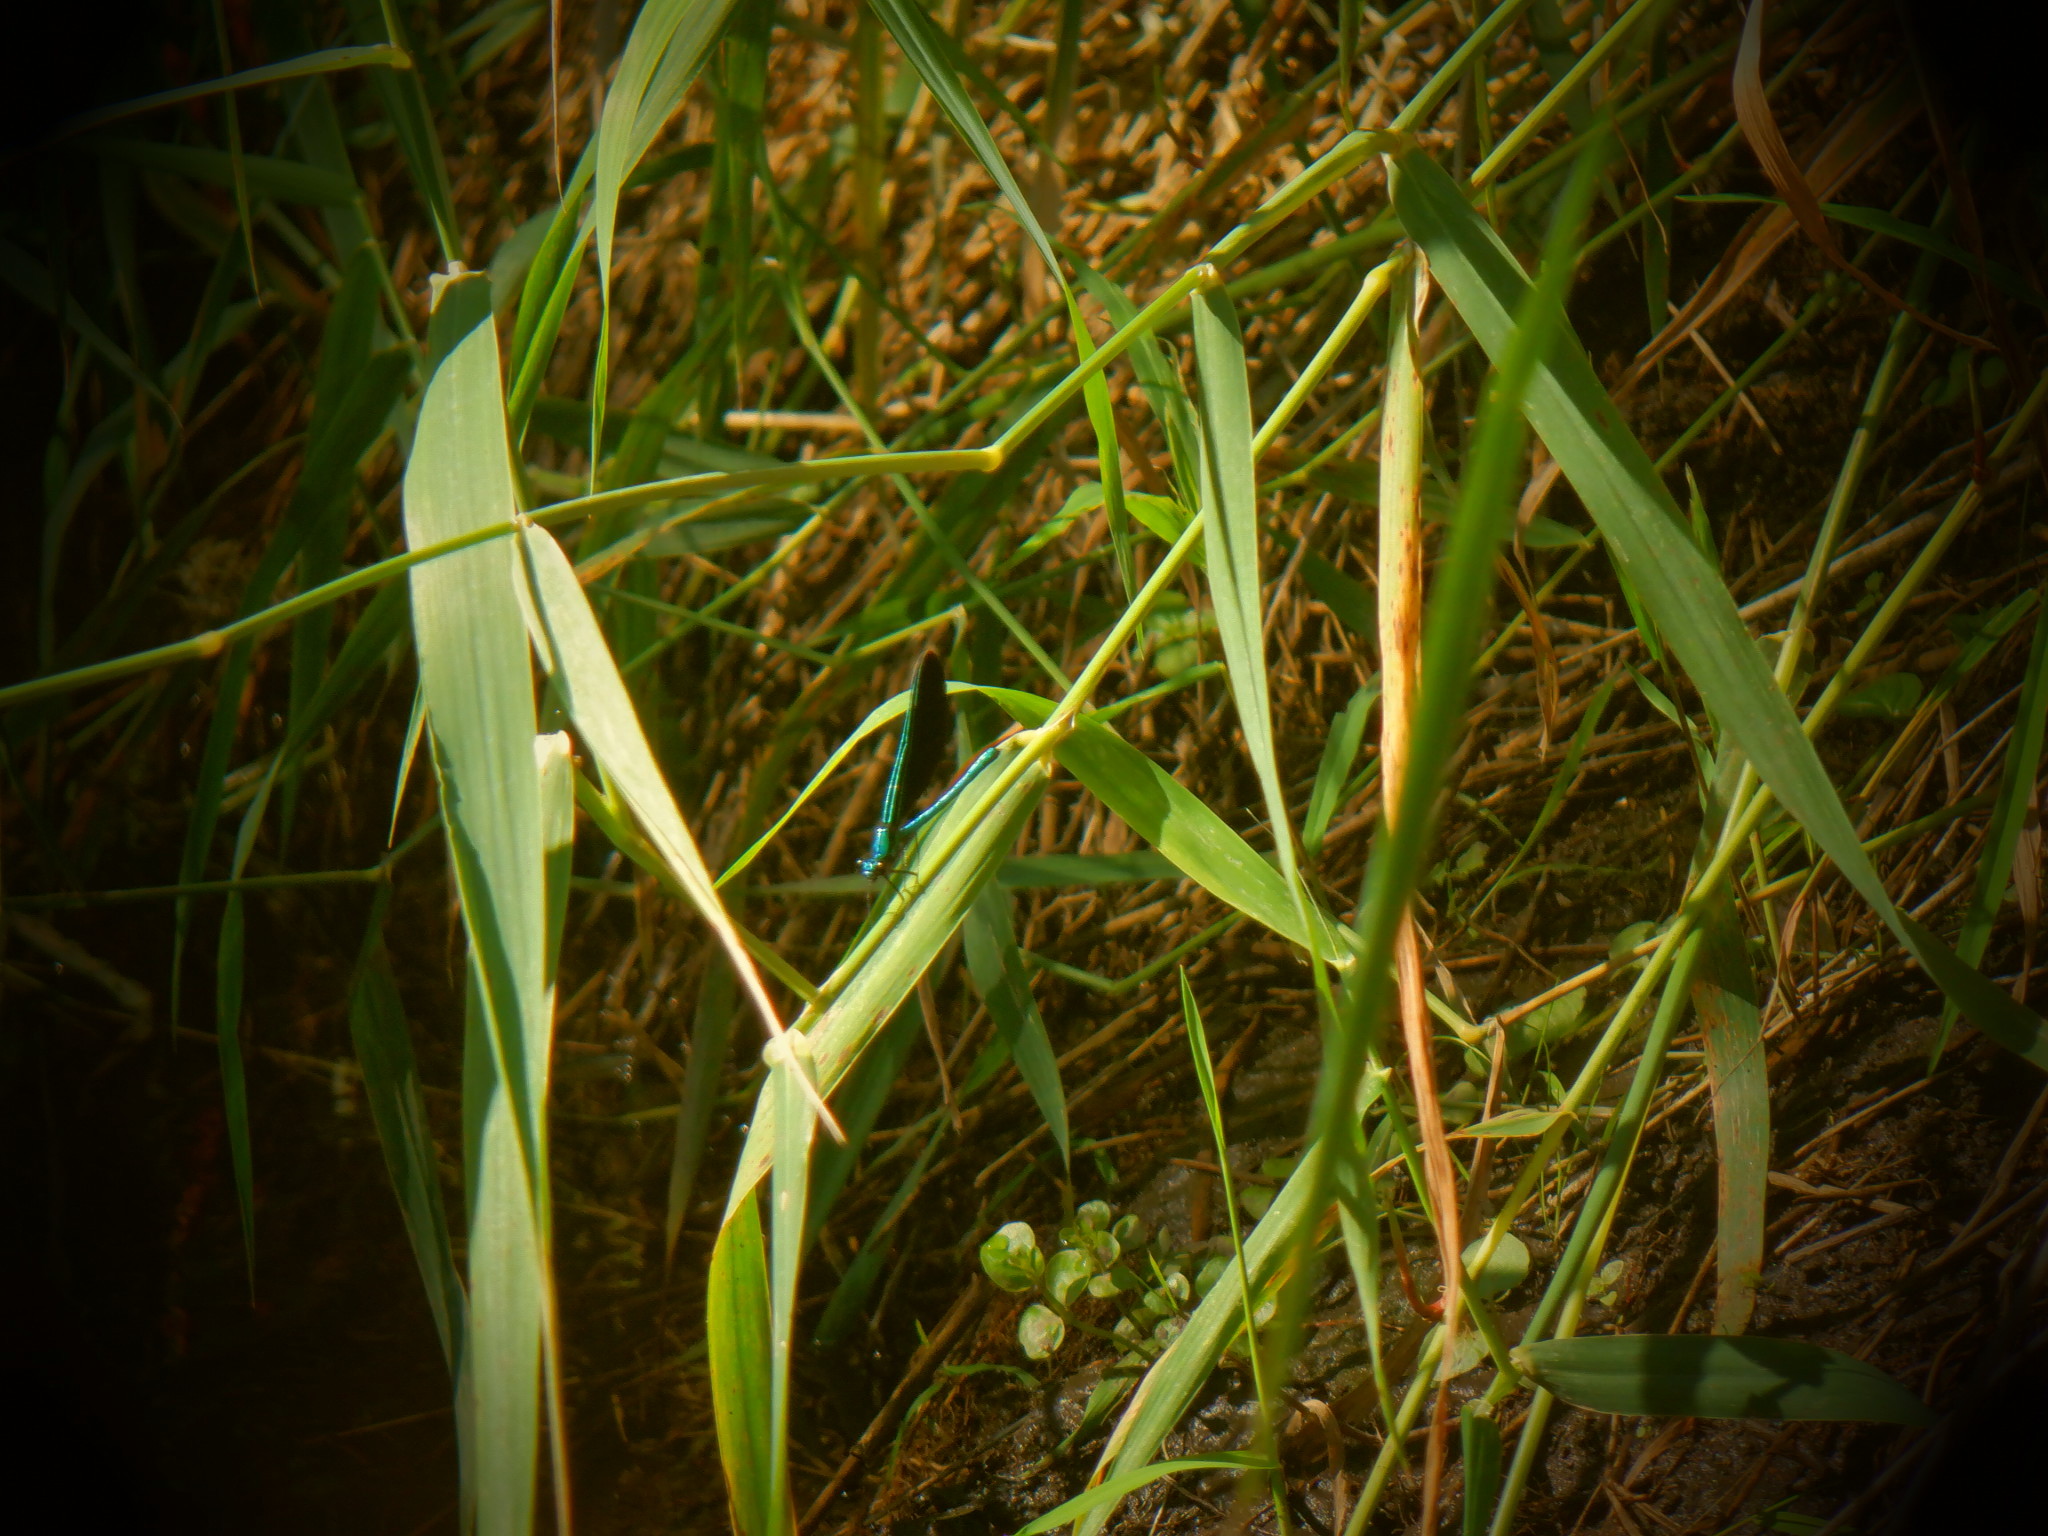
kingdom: Animalia
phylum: Arthropoda
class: Insecta
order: Odonata
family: Calopterygidae
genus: Calopteryx
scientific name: Calopteryx maculata
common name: Ebony jewelwing
